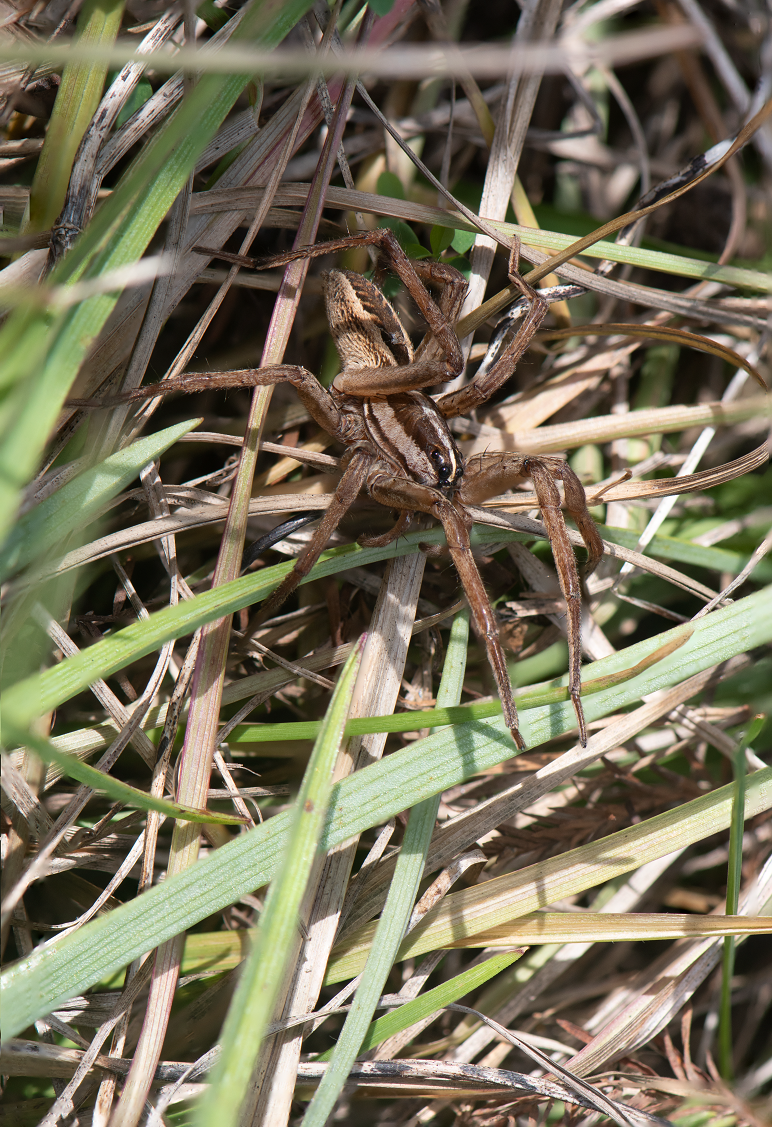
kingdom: Animalia
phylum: Arthropoda
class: Arachnida
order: Araneae
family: Lycosidae
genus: Rabidosa
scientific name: Rabidosa rabida
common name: Rabid wolf spider
